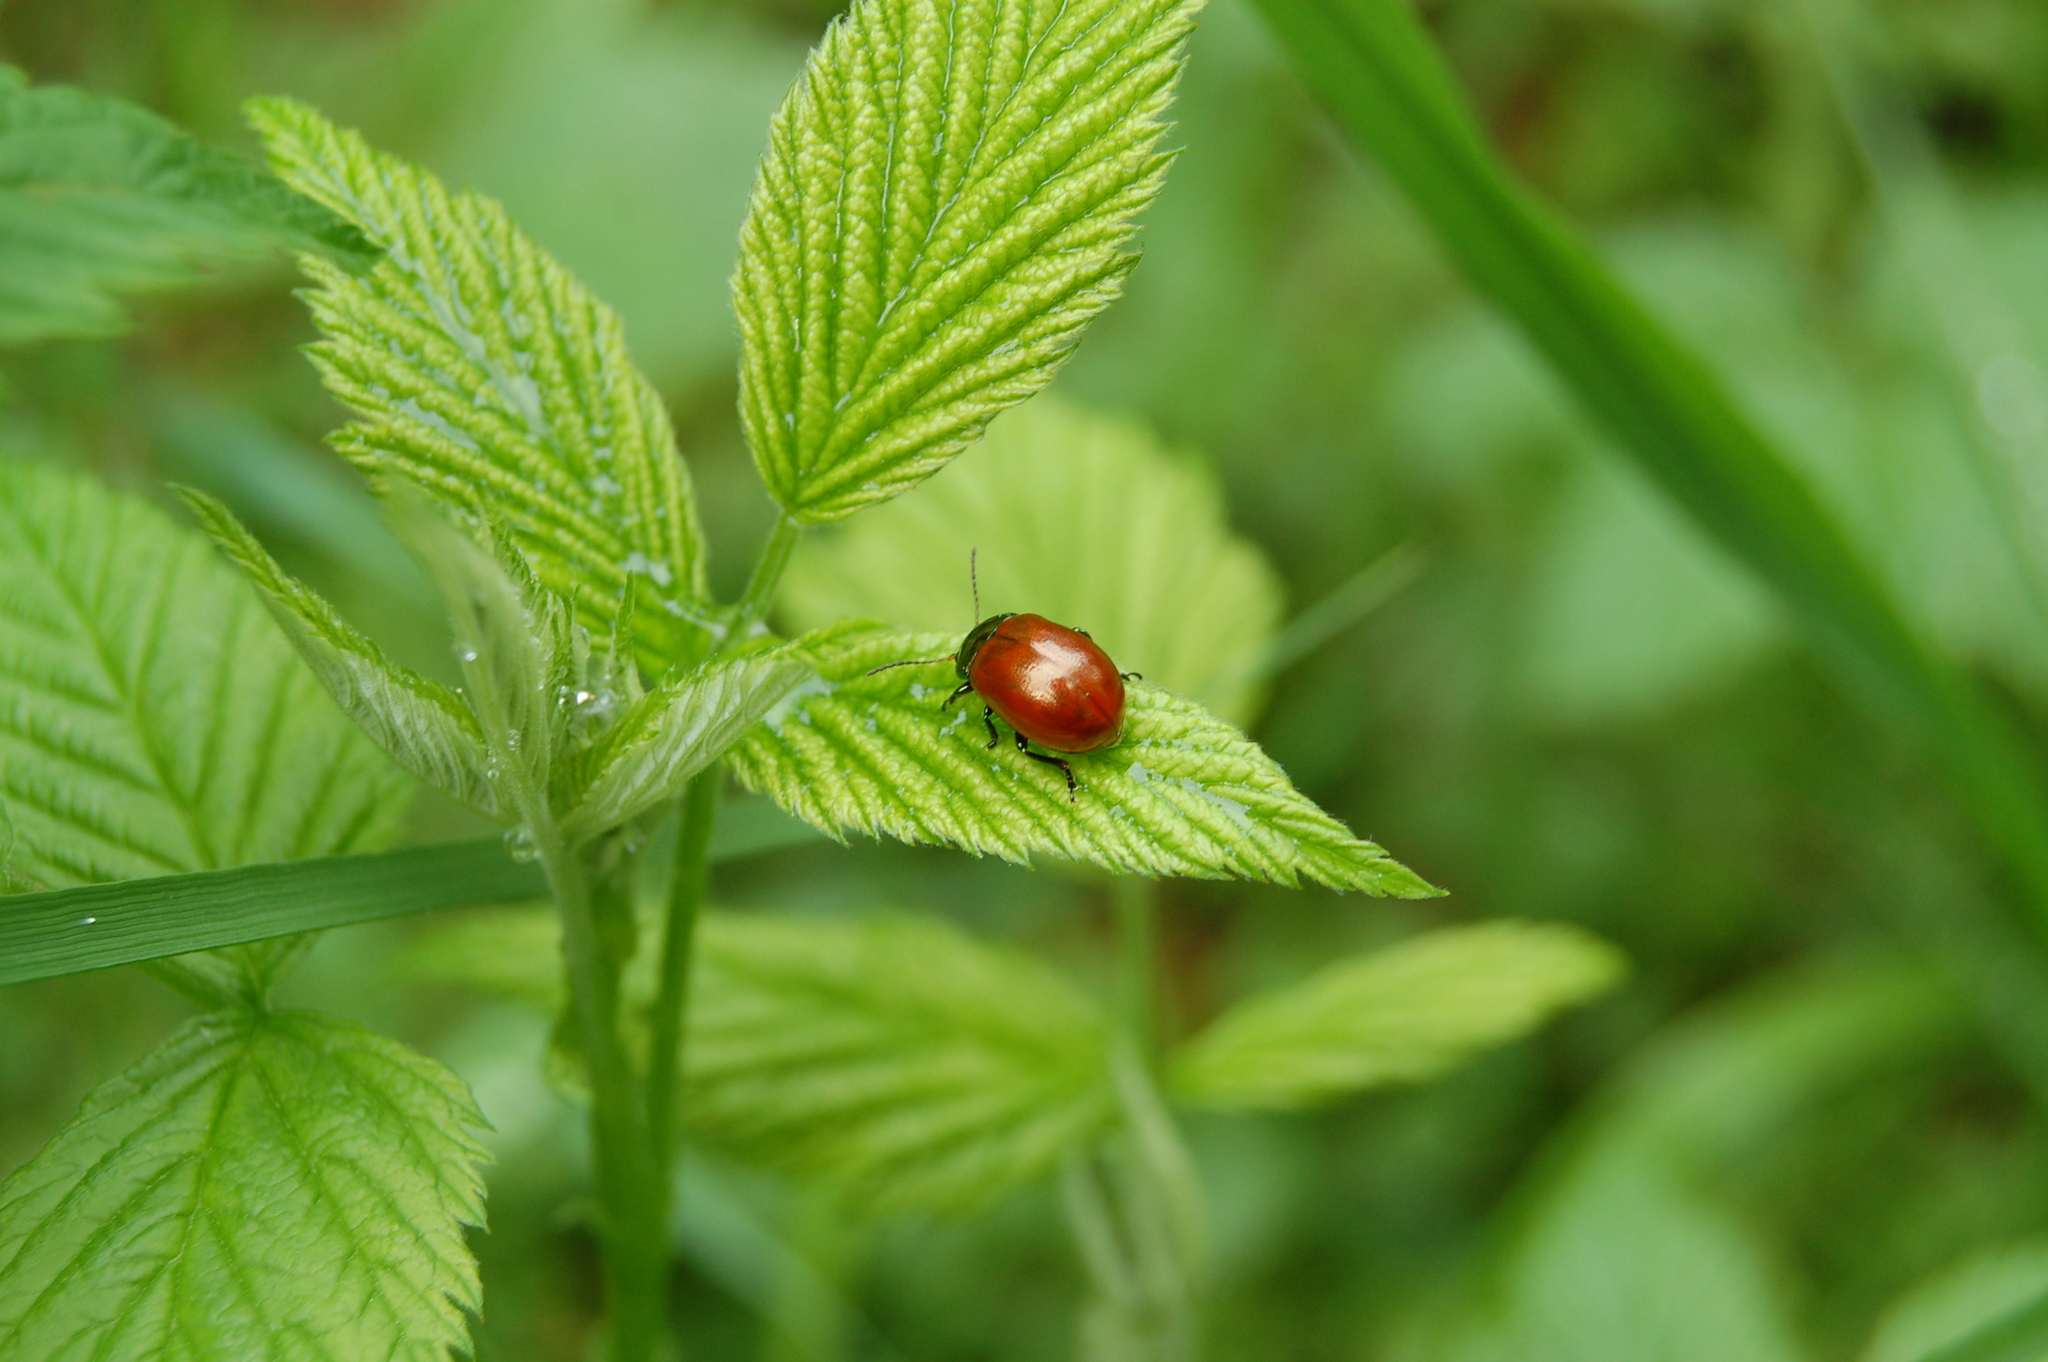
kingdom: Animalia
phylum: Arthropoda
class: Insecta
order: Coleoptera
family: Chrysomelidae
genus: Chrysomela
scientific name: Chrysomela polita
